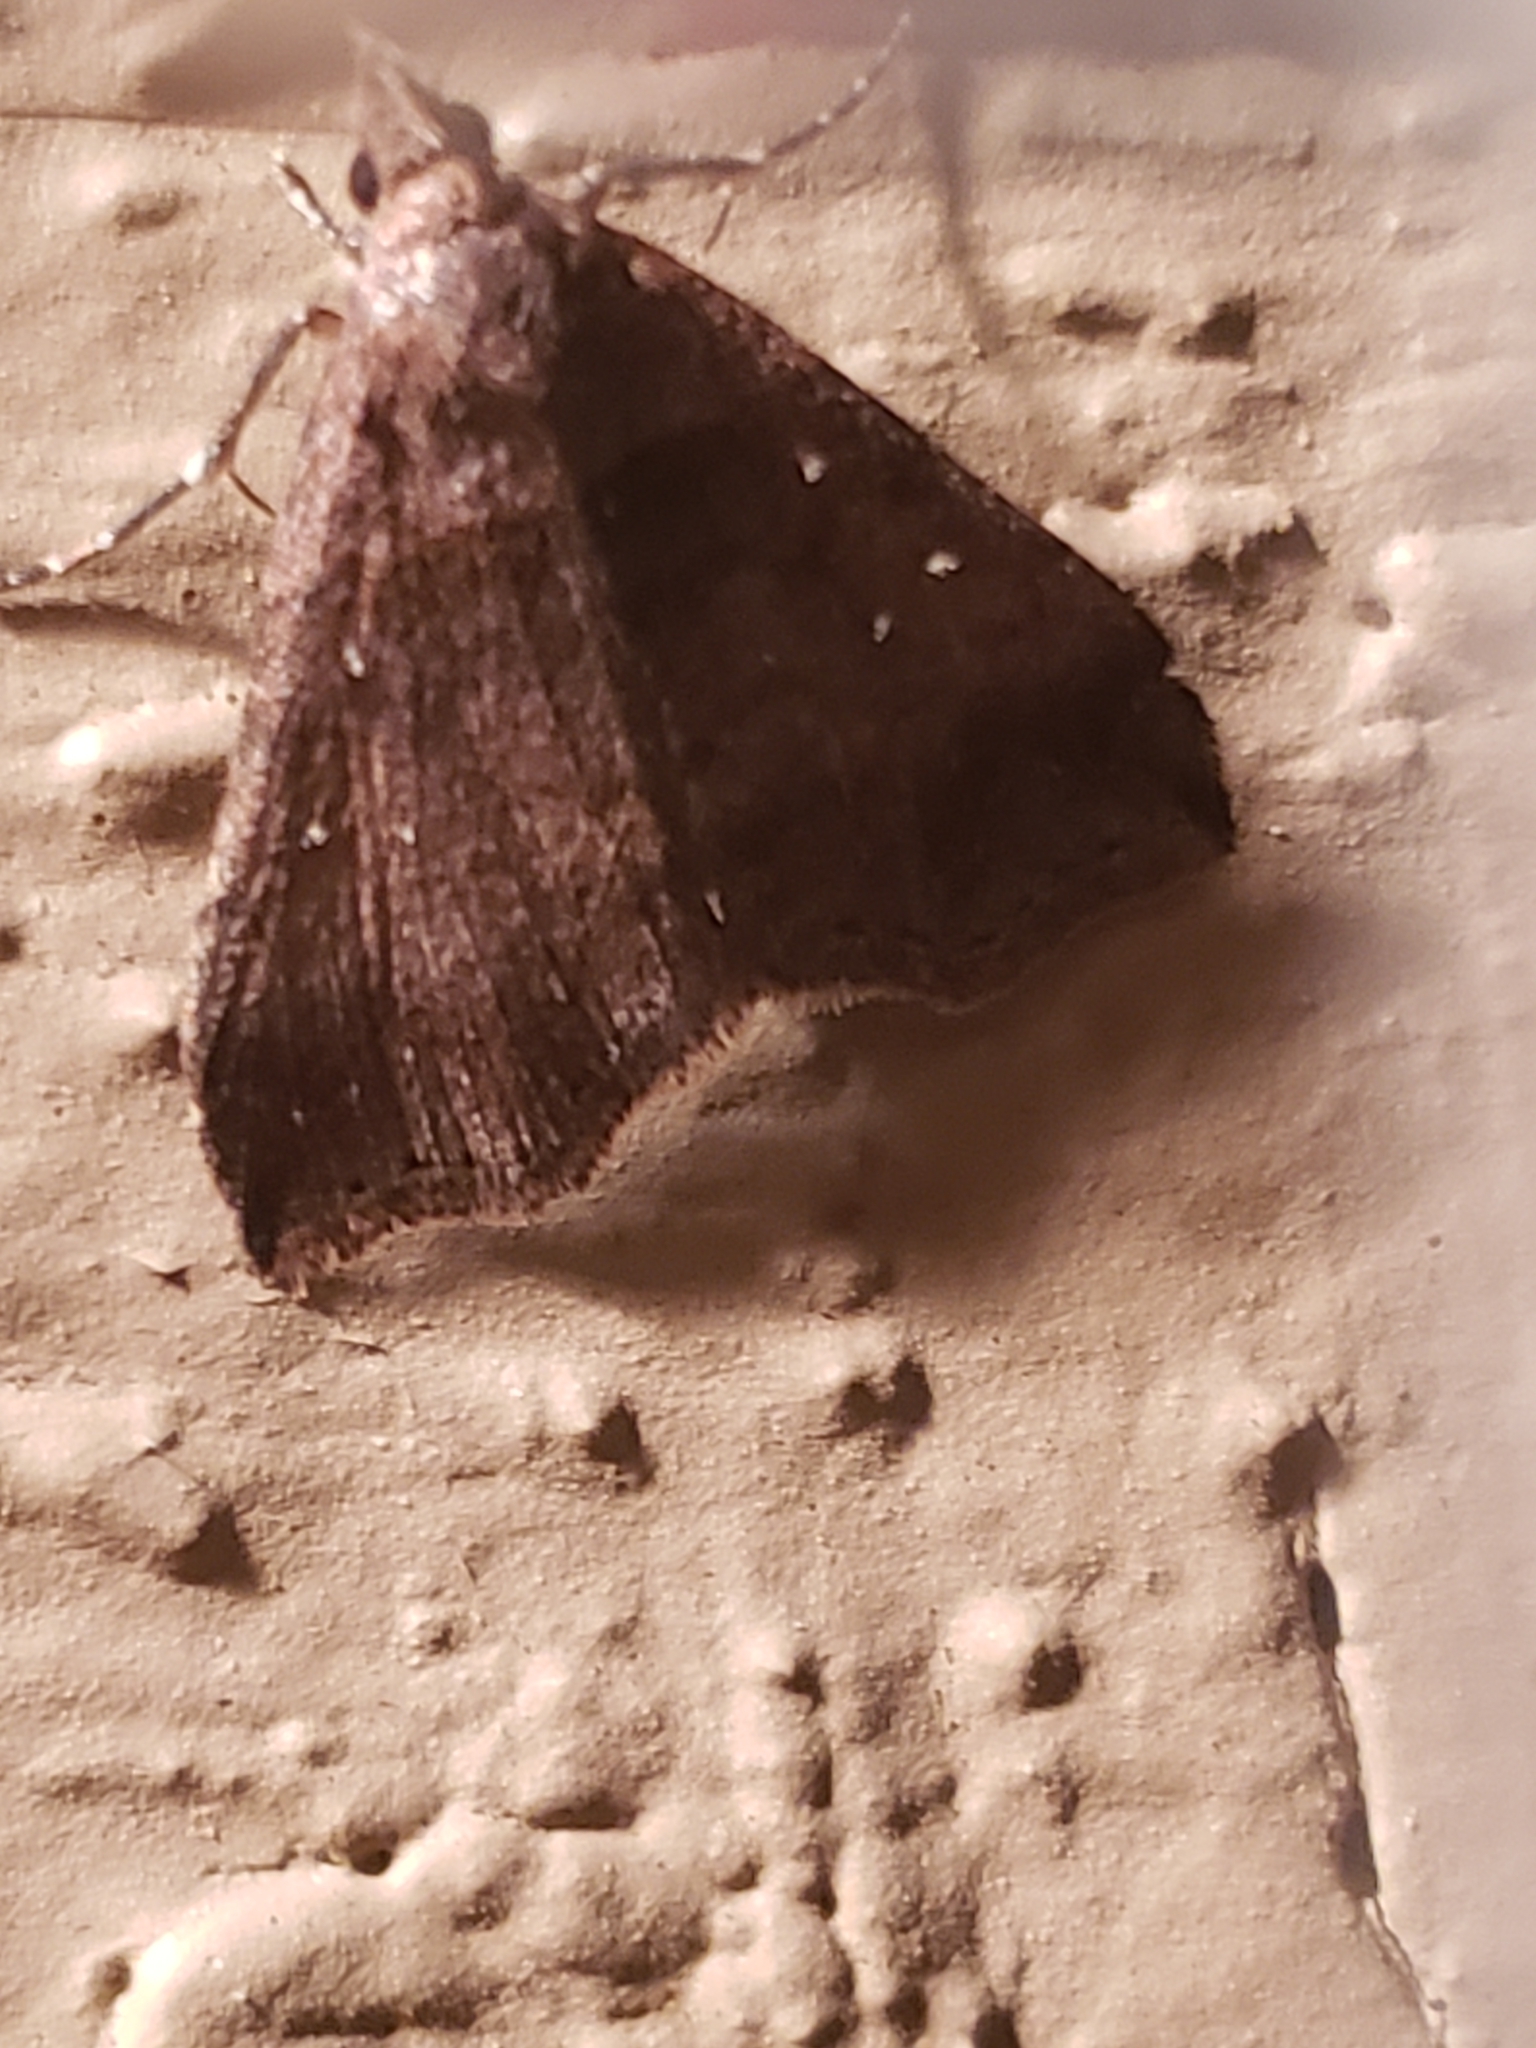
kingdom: Animalia
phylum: Arthropoda
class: Insecta
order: Lepidoptera
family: Erebidae
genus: Lascoria
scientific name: Lascoria ambigualis
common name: Ambiguous moth
